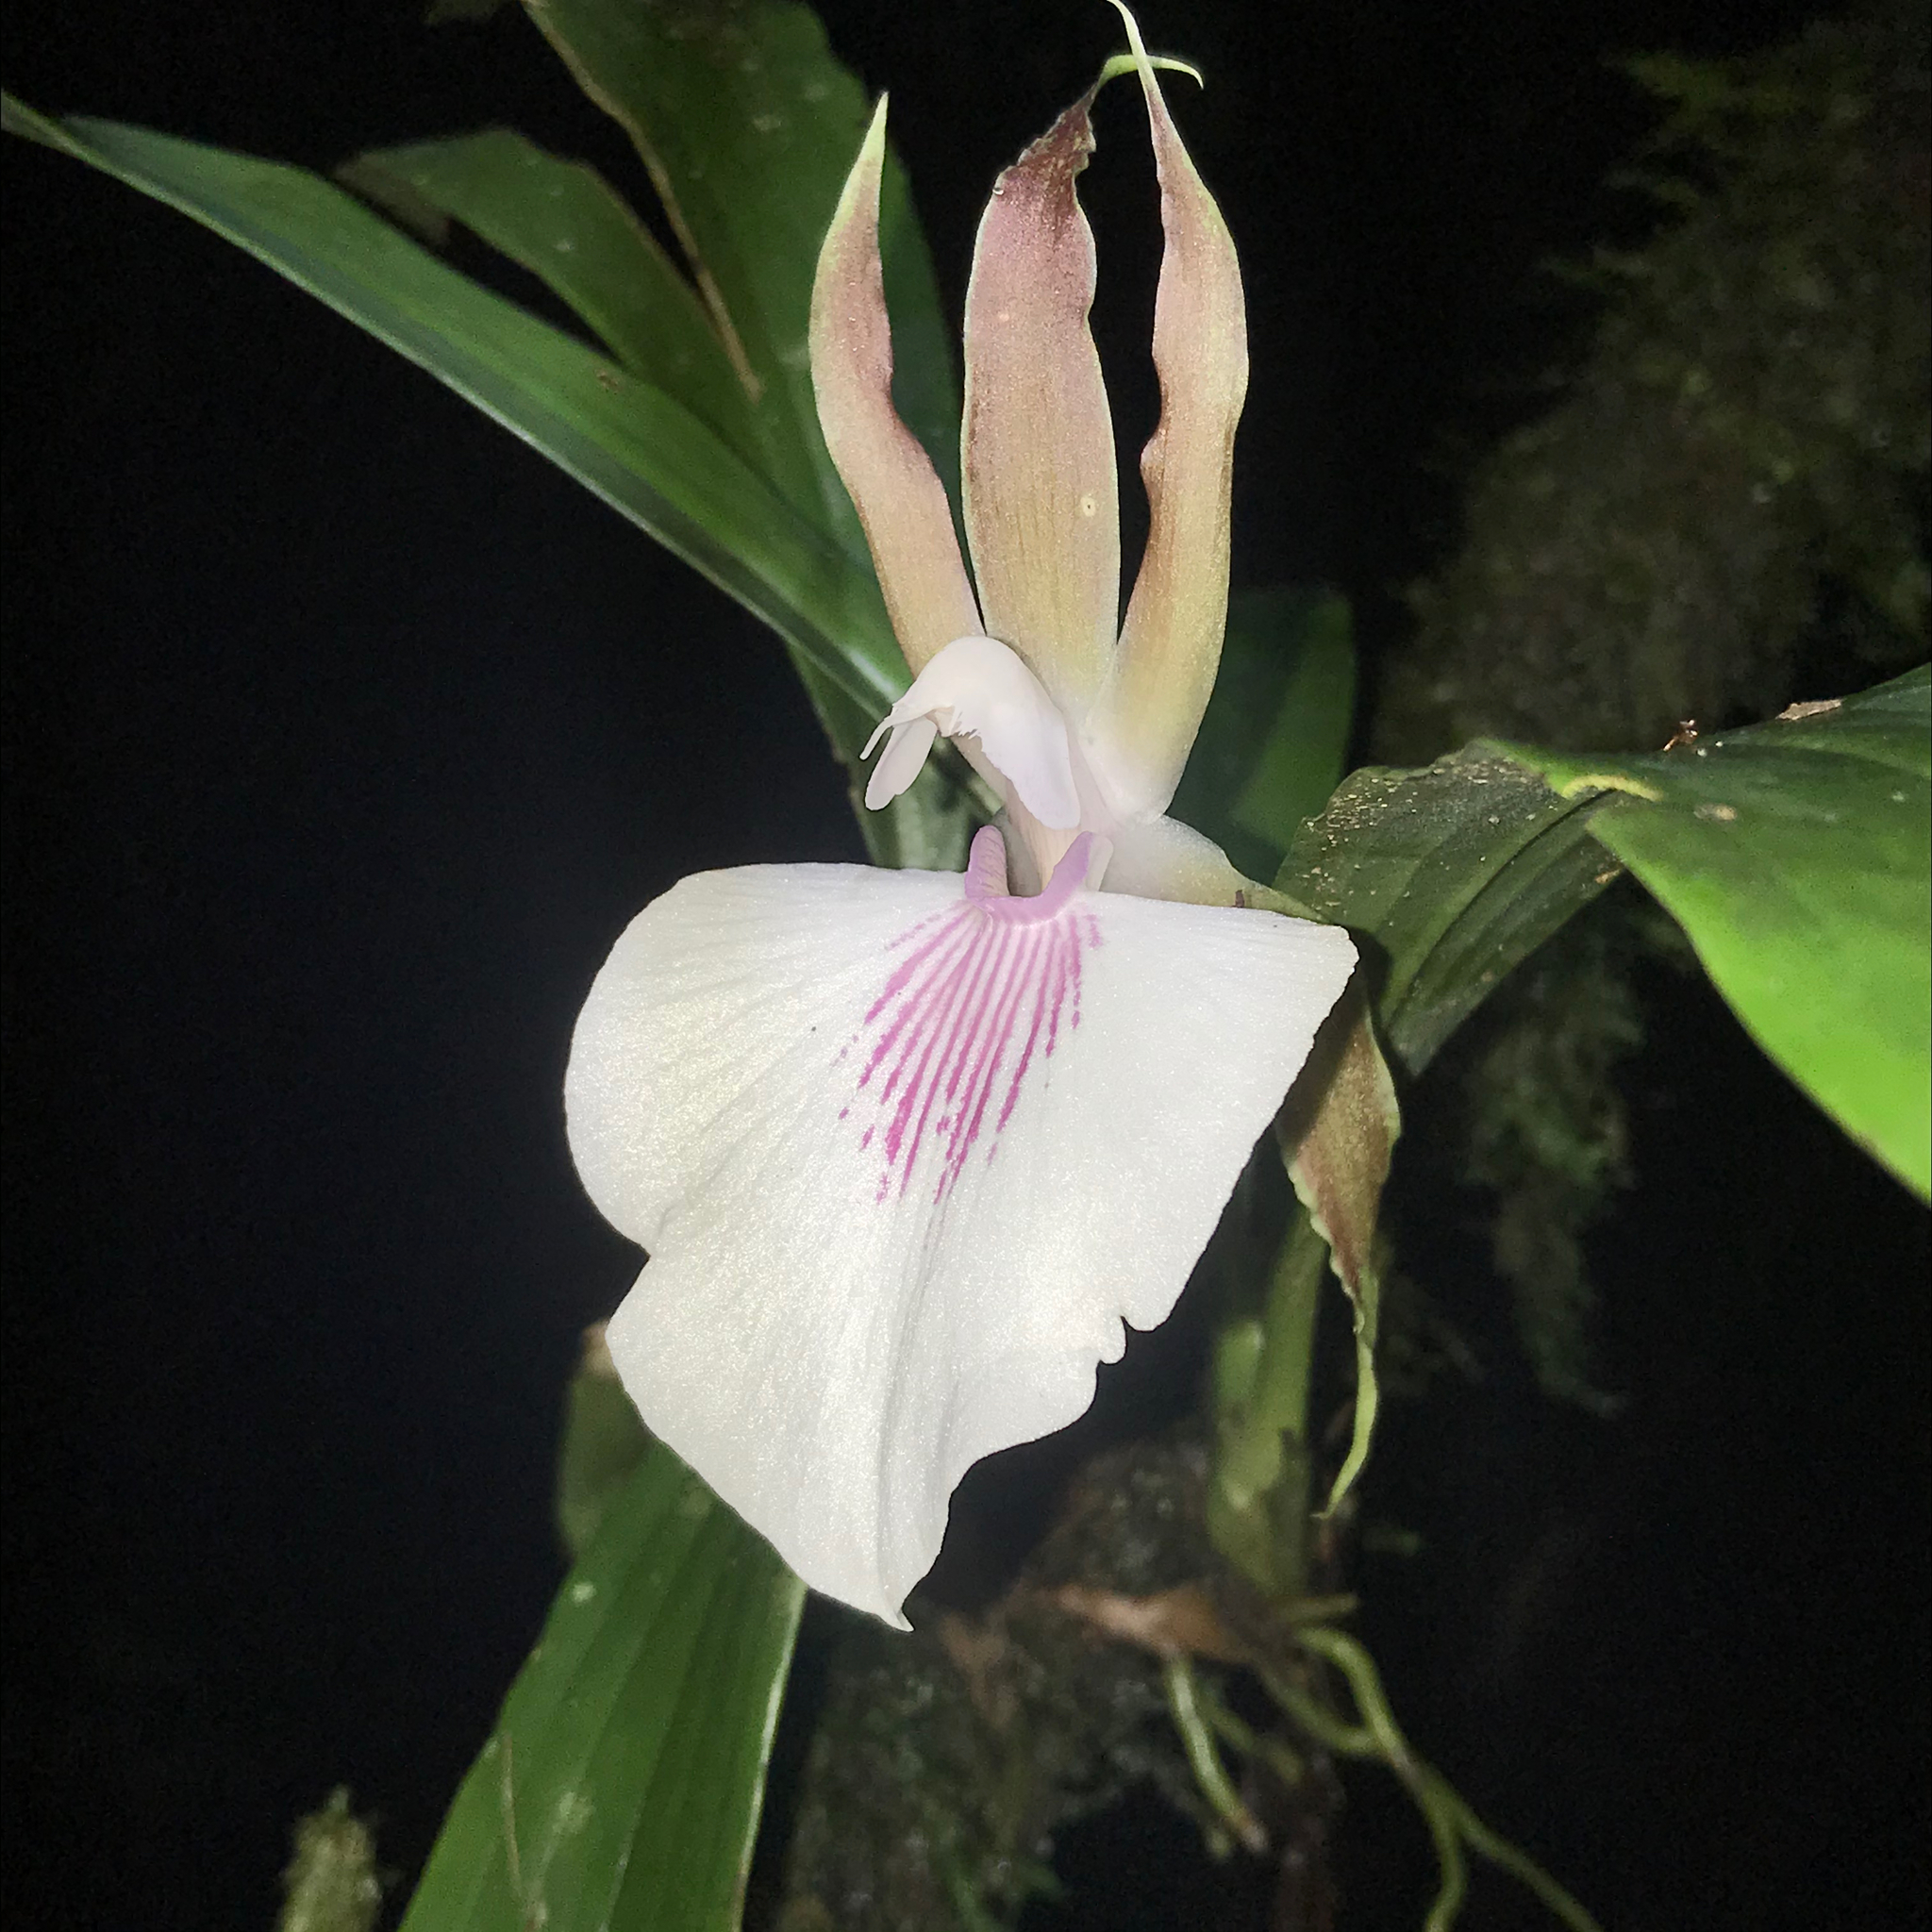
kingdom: Plantae
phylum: Tracheophyta
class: Liliopsida
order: Asparagales
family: Orchidaceae
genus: Zygosepalum
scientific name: Zygosepalum labiosum
